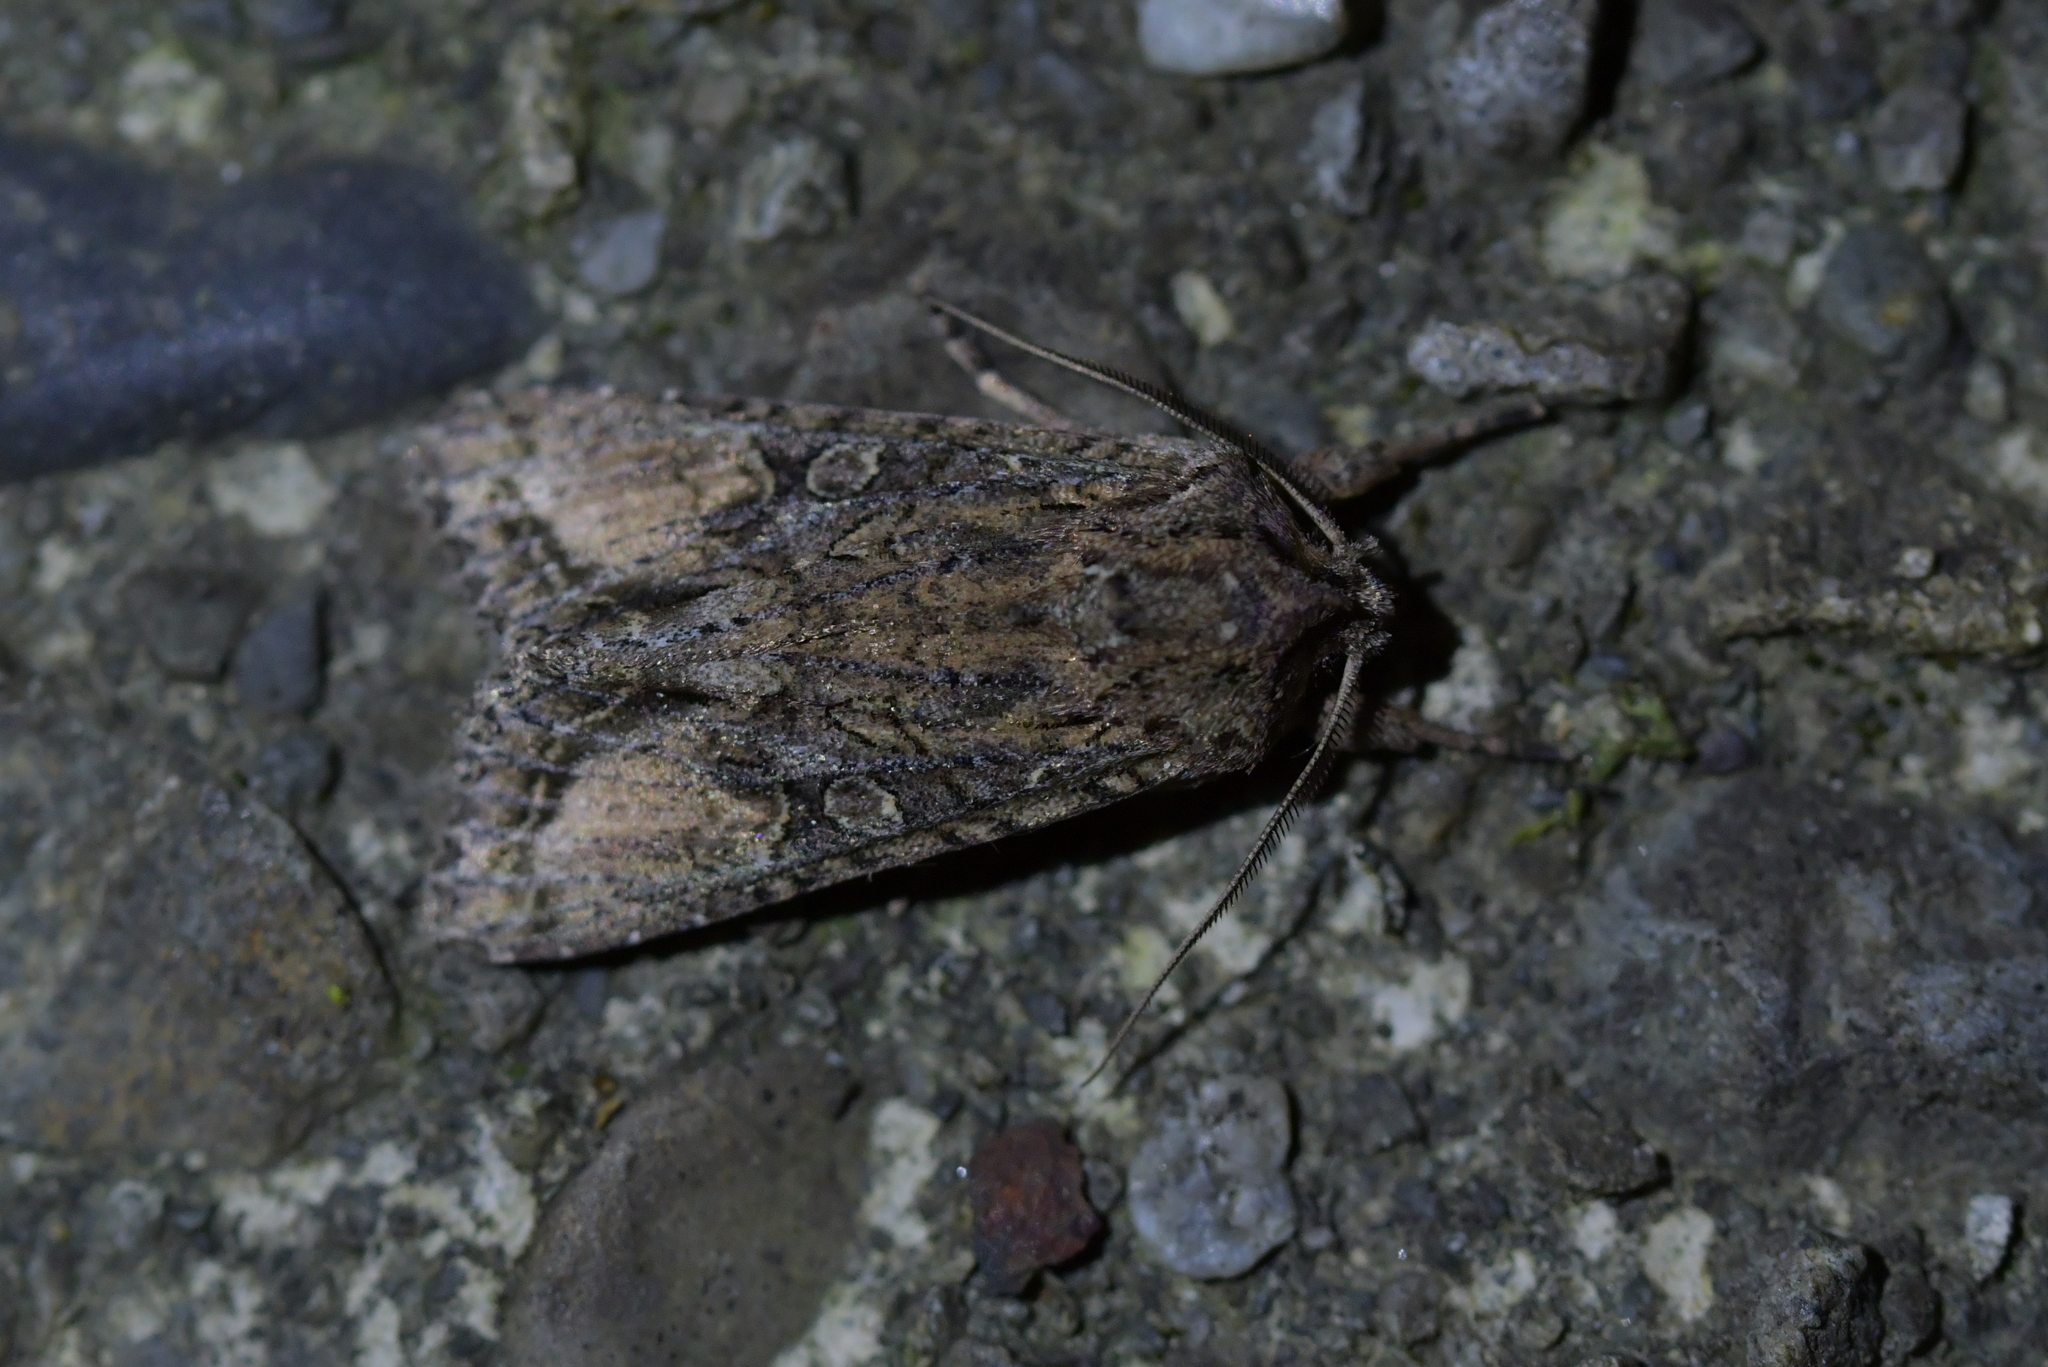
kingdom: Animalia
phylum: Arthropoda
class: Insecta
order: Lepidoptera
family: Noctuidae
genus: Ichneutica
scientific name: Ichneutica mutans
